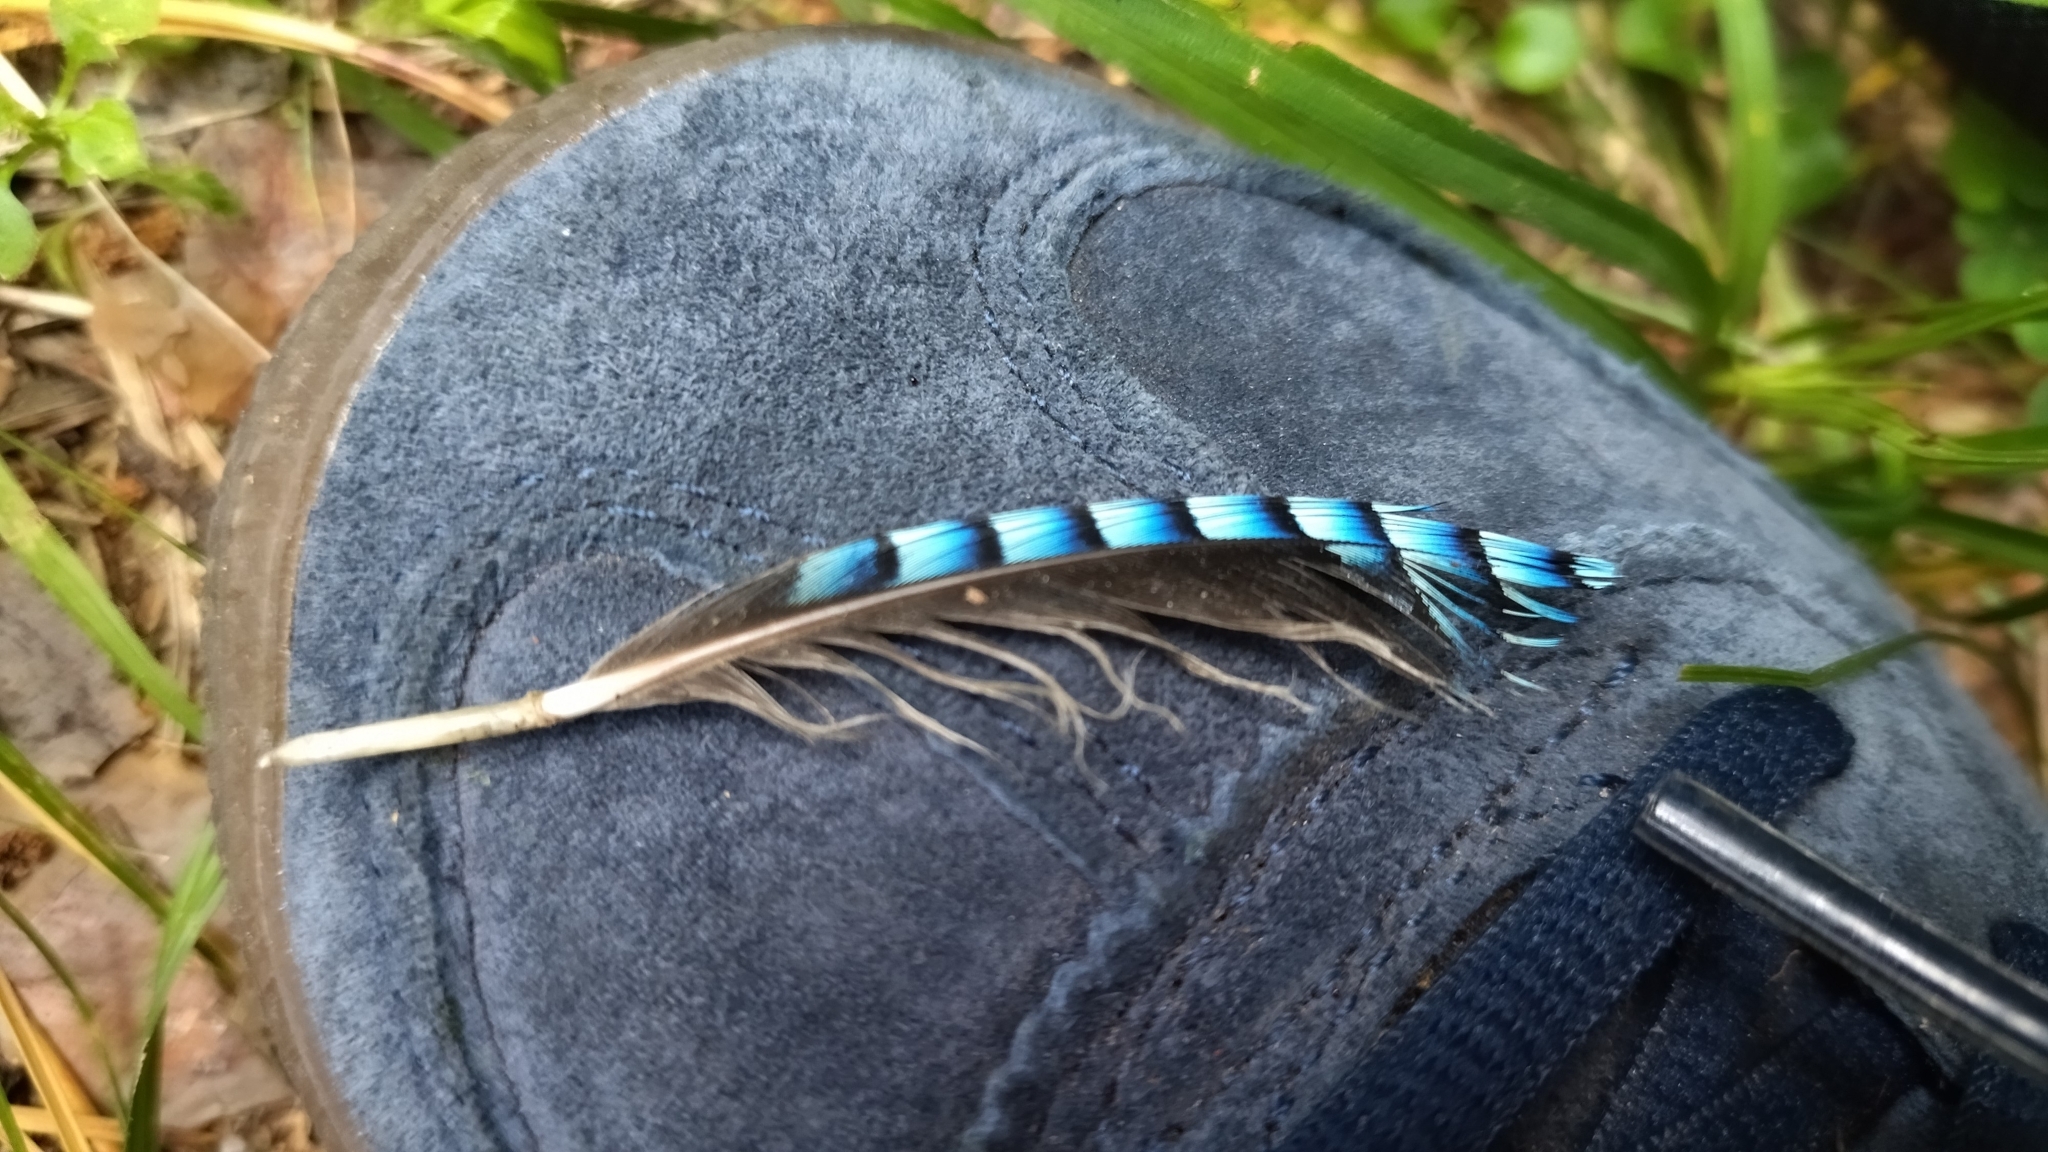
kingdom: Animalia
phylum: Chordata
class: Aves
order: Passeriformes
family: Corvidae
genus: Garrulus
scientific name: Garrulus glandarius
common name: Eurasian jay
